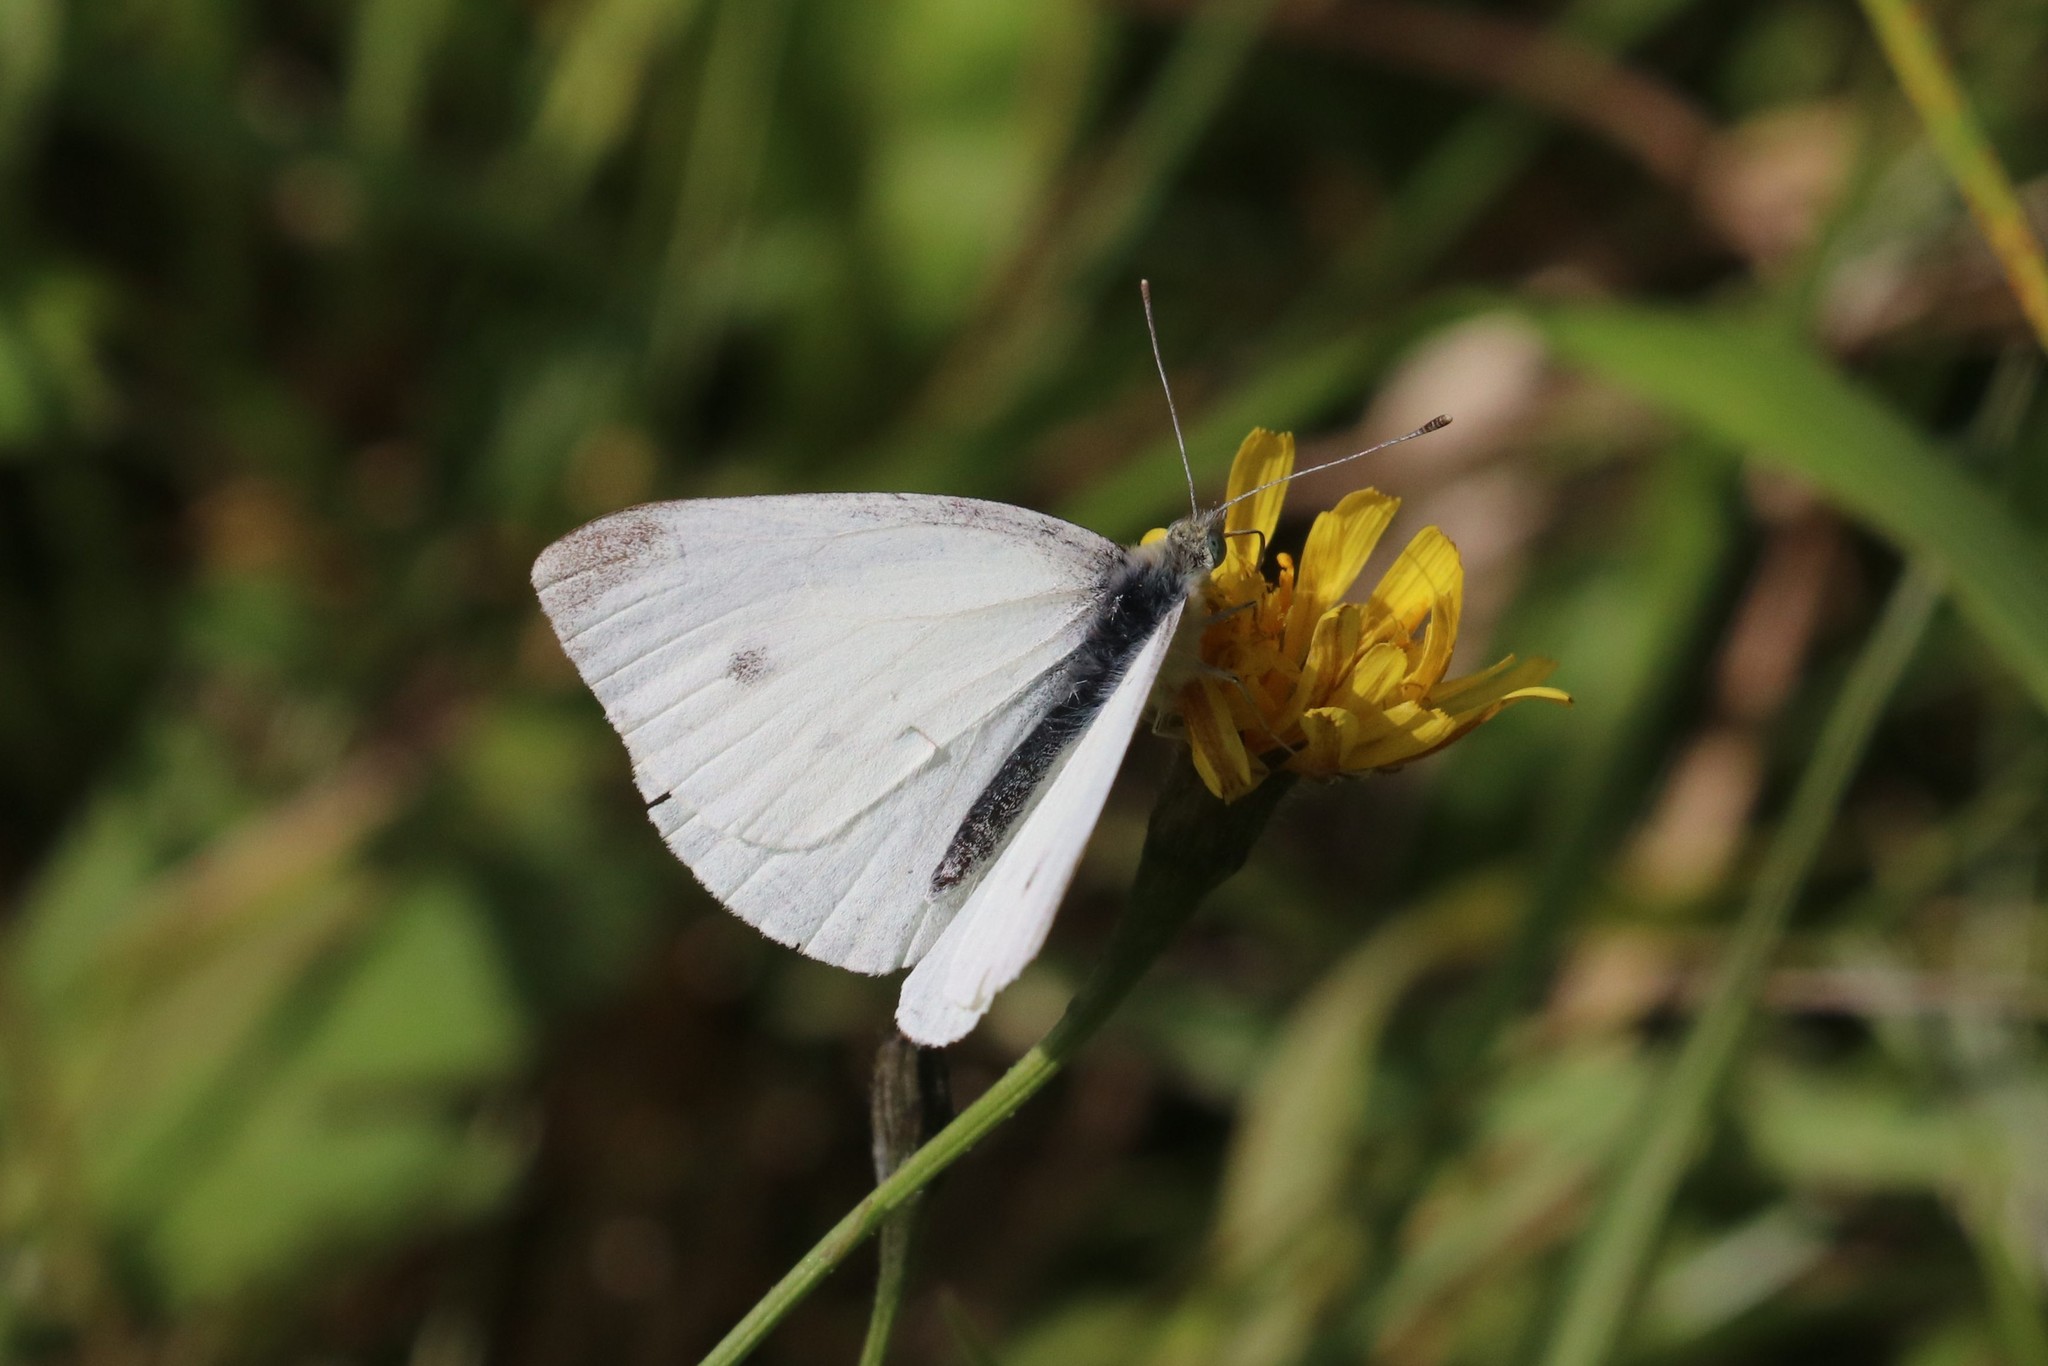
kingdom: Animalia
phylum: Arthropoda
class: Insecta
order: Lepidoptera
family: Pieridae
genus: Pieris
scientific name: Pieris napi
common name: Green-veined white
